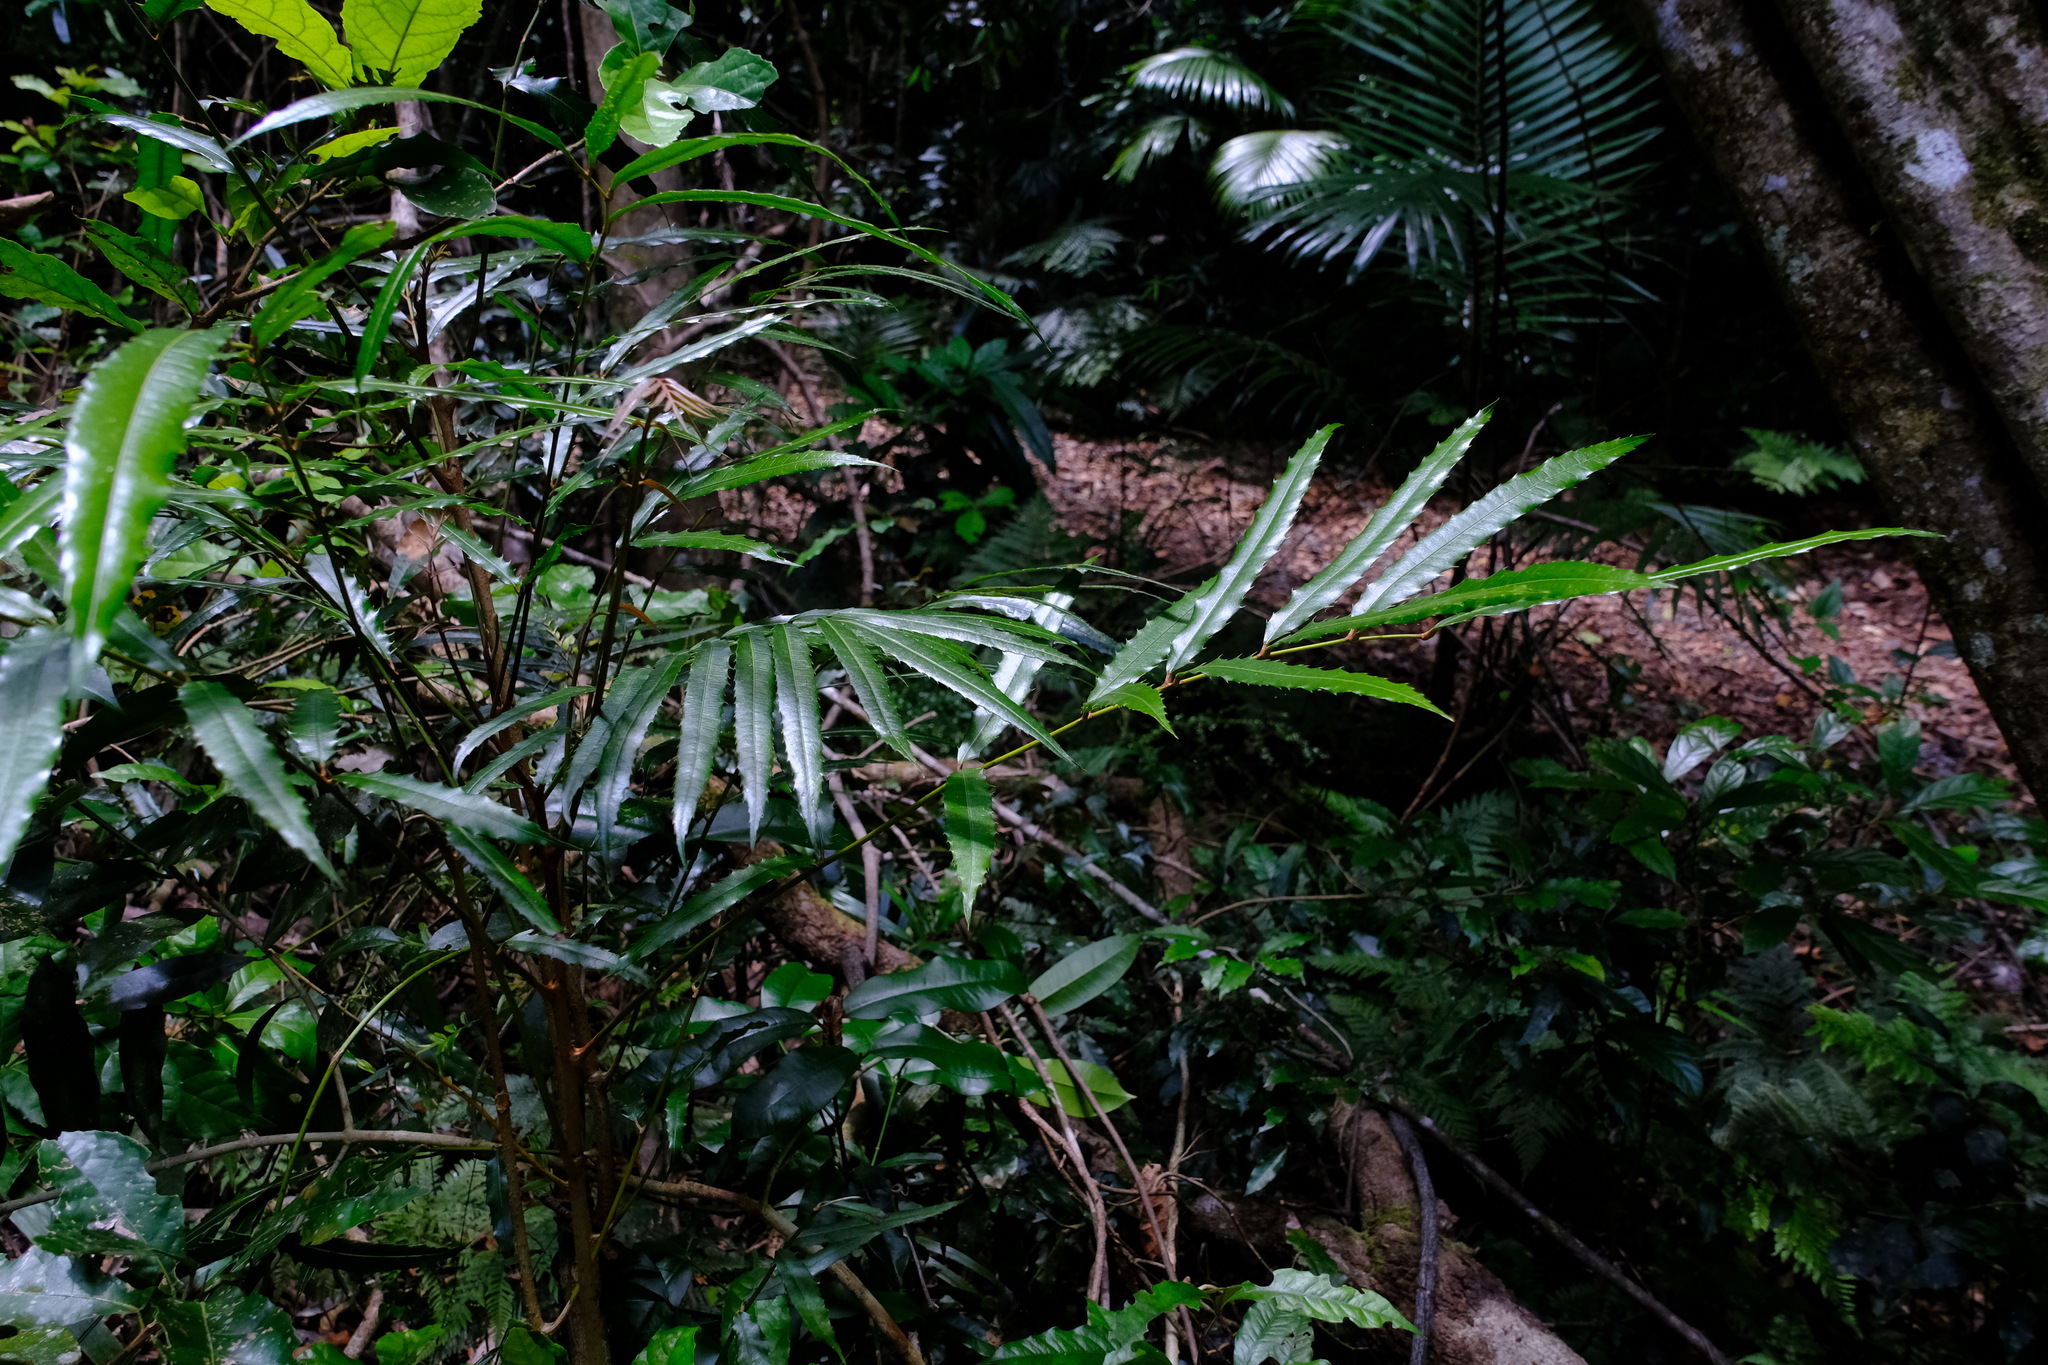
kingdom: Plantae
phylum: Tracheophyta
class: Magnoliopsida
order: Brassicales
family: Akaniaceae
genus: Akania
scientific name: Akania bidwillii
